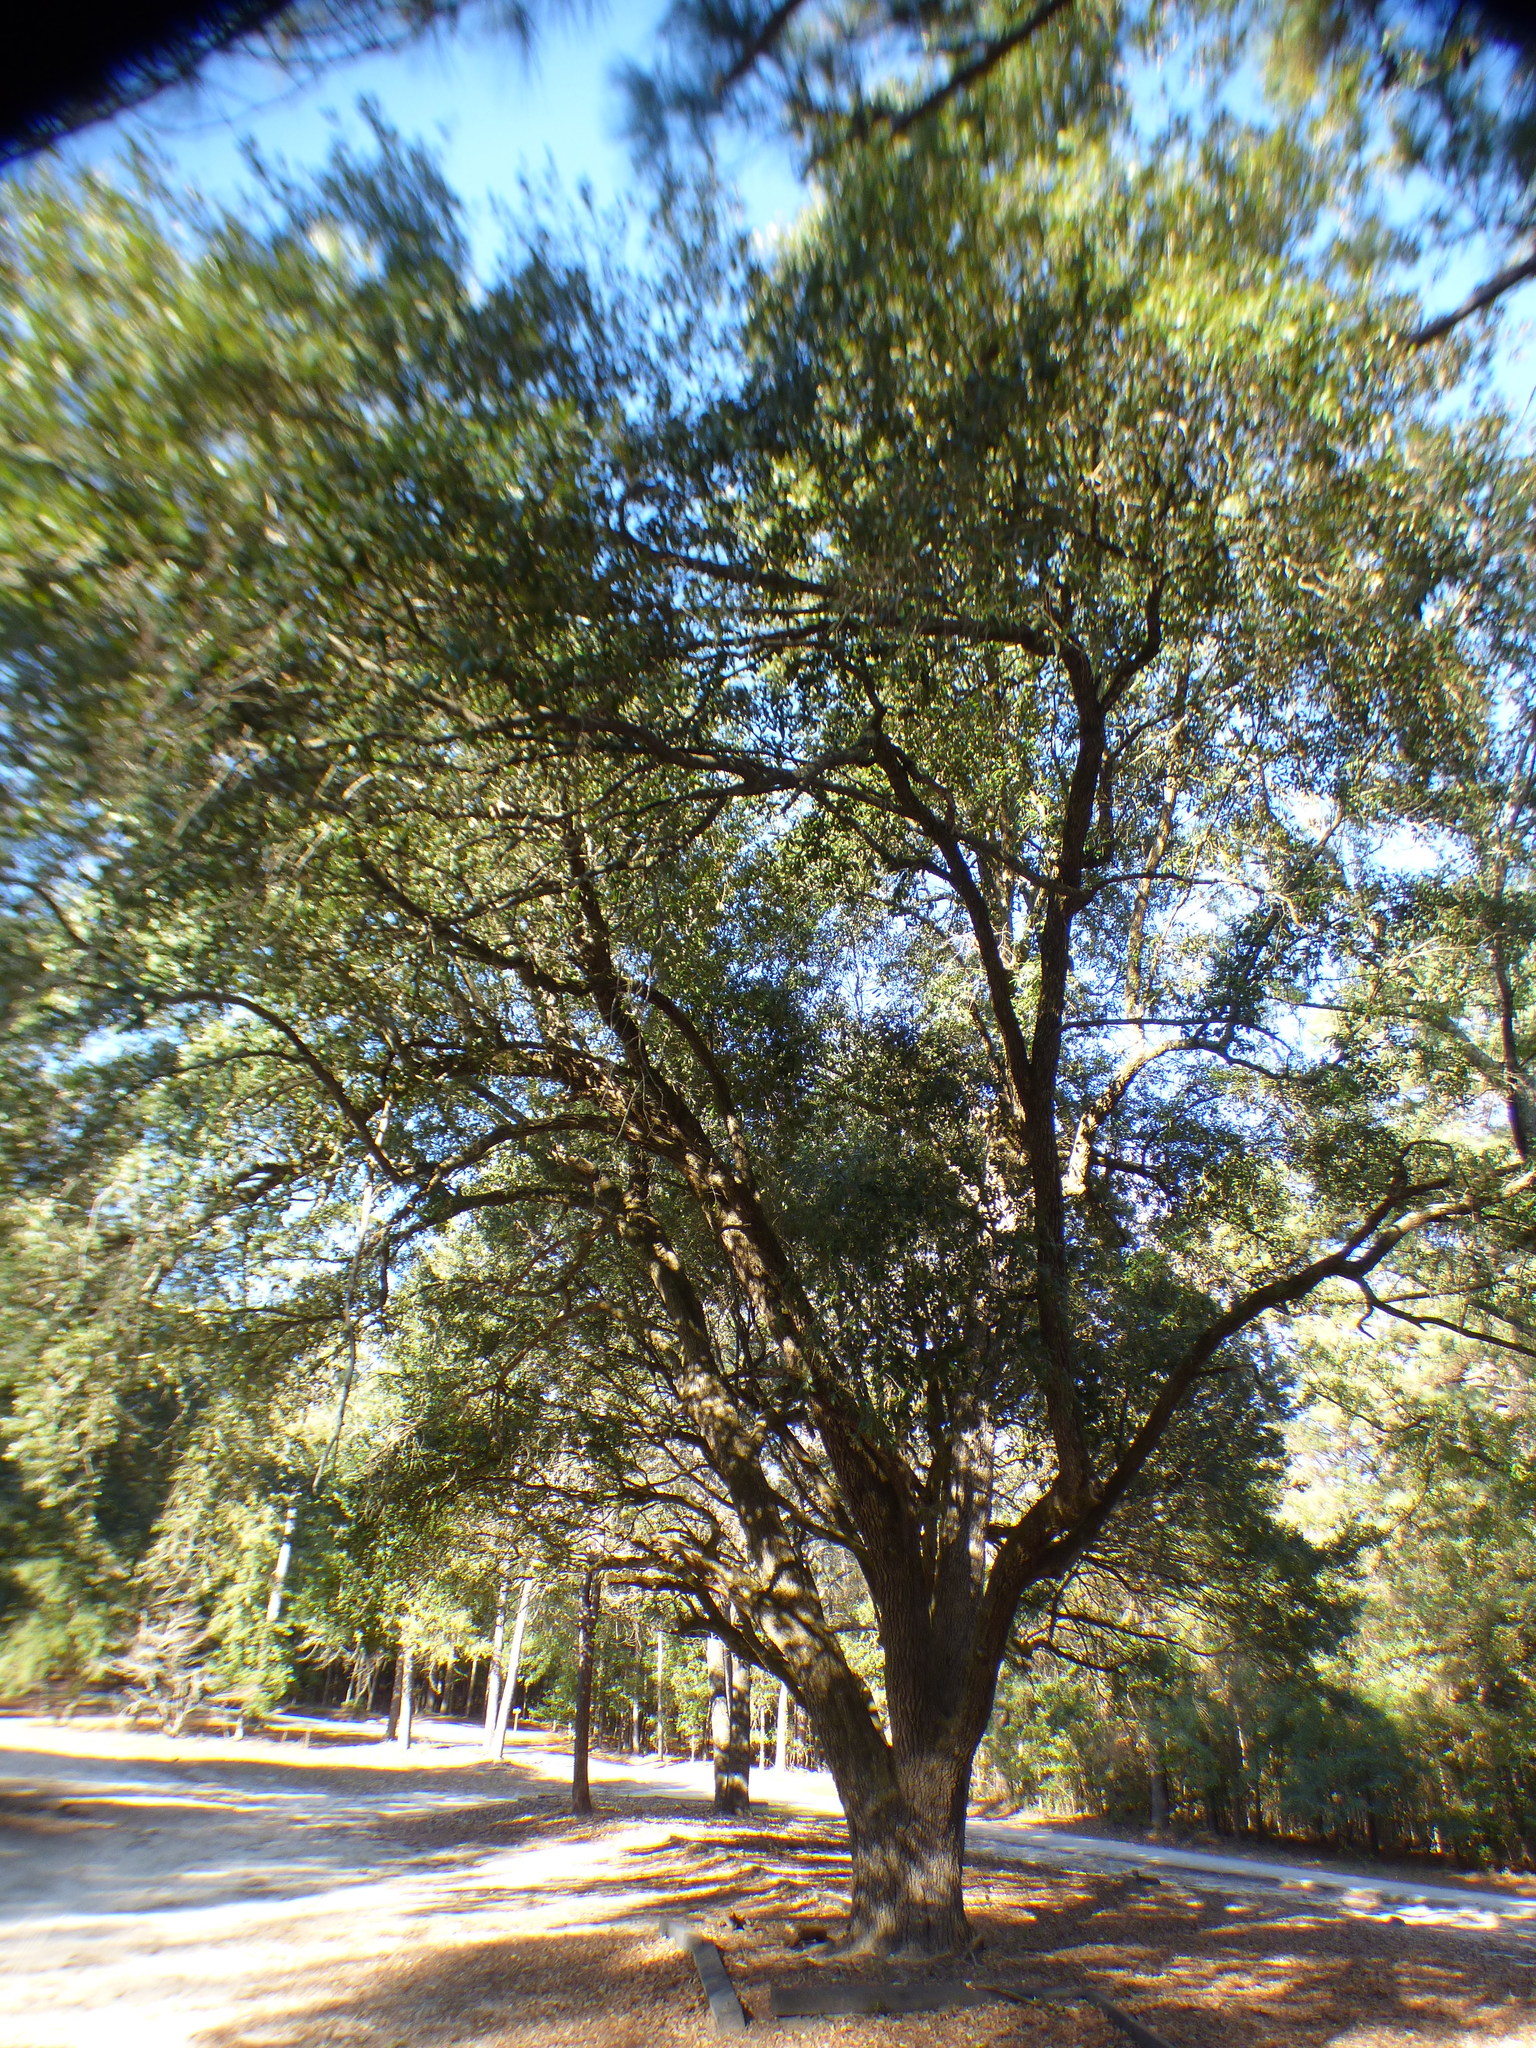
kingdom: Plantae
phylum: Tracheophyta
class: Magnoliopsida
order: Fagales
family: Fagaceae
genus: Quercus
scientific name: Quercus virginiana
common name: Southern live oak
